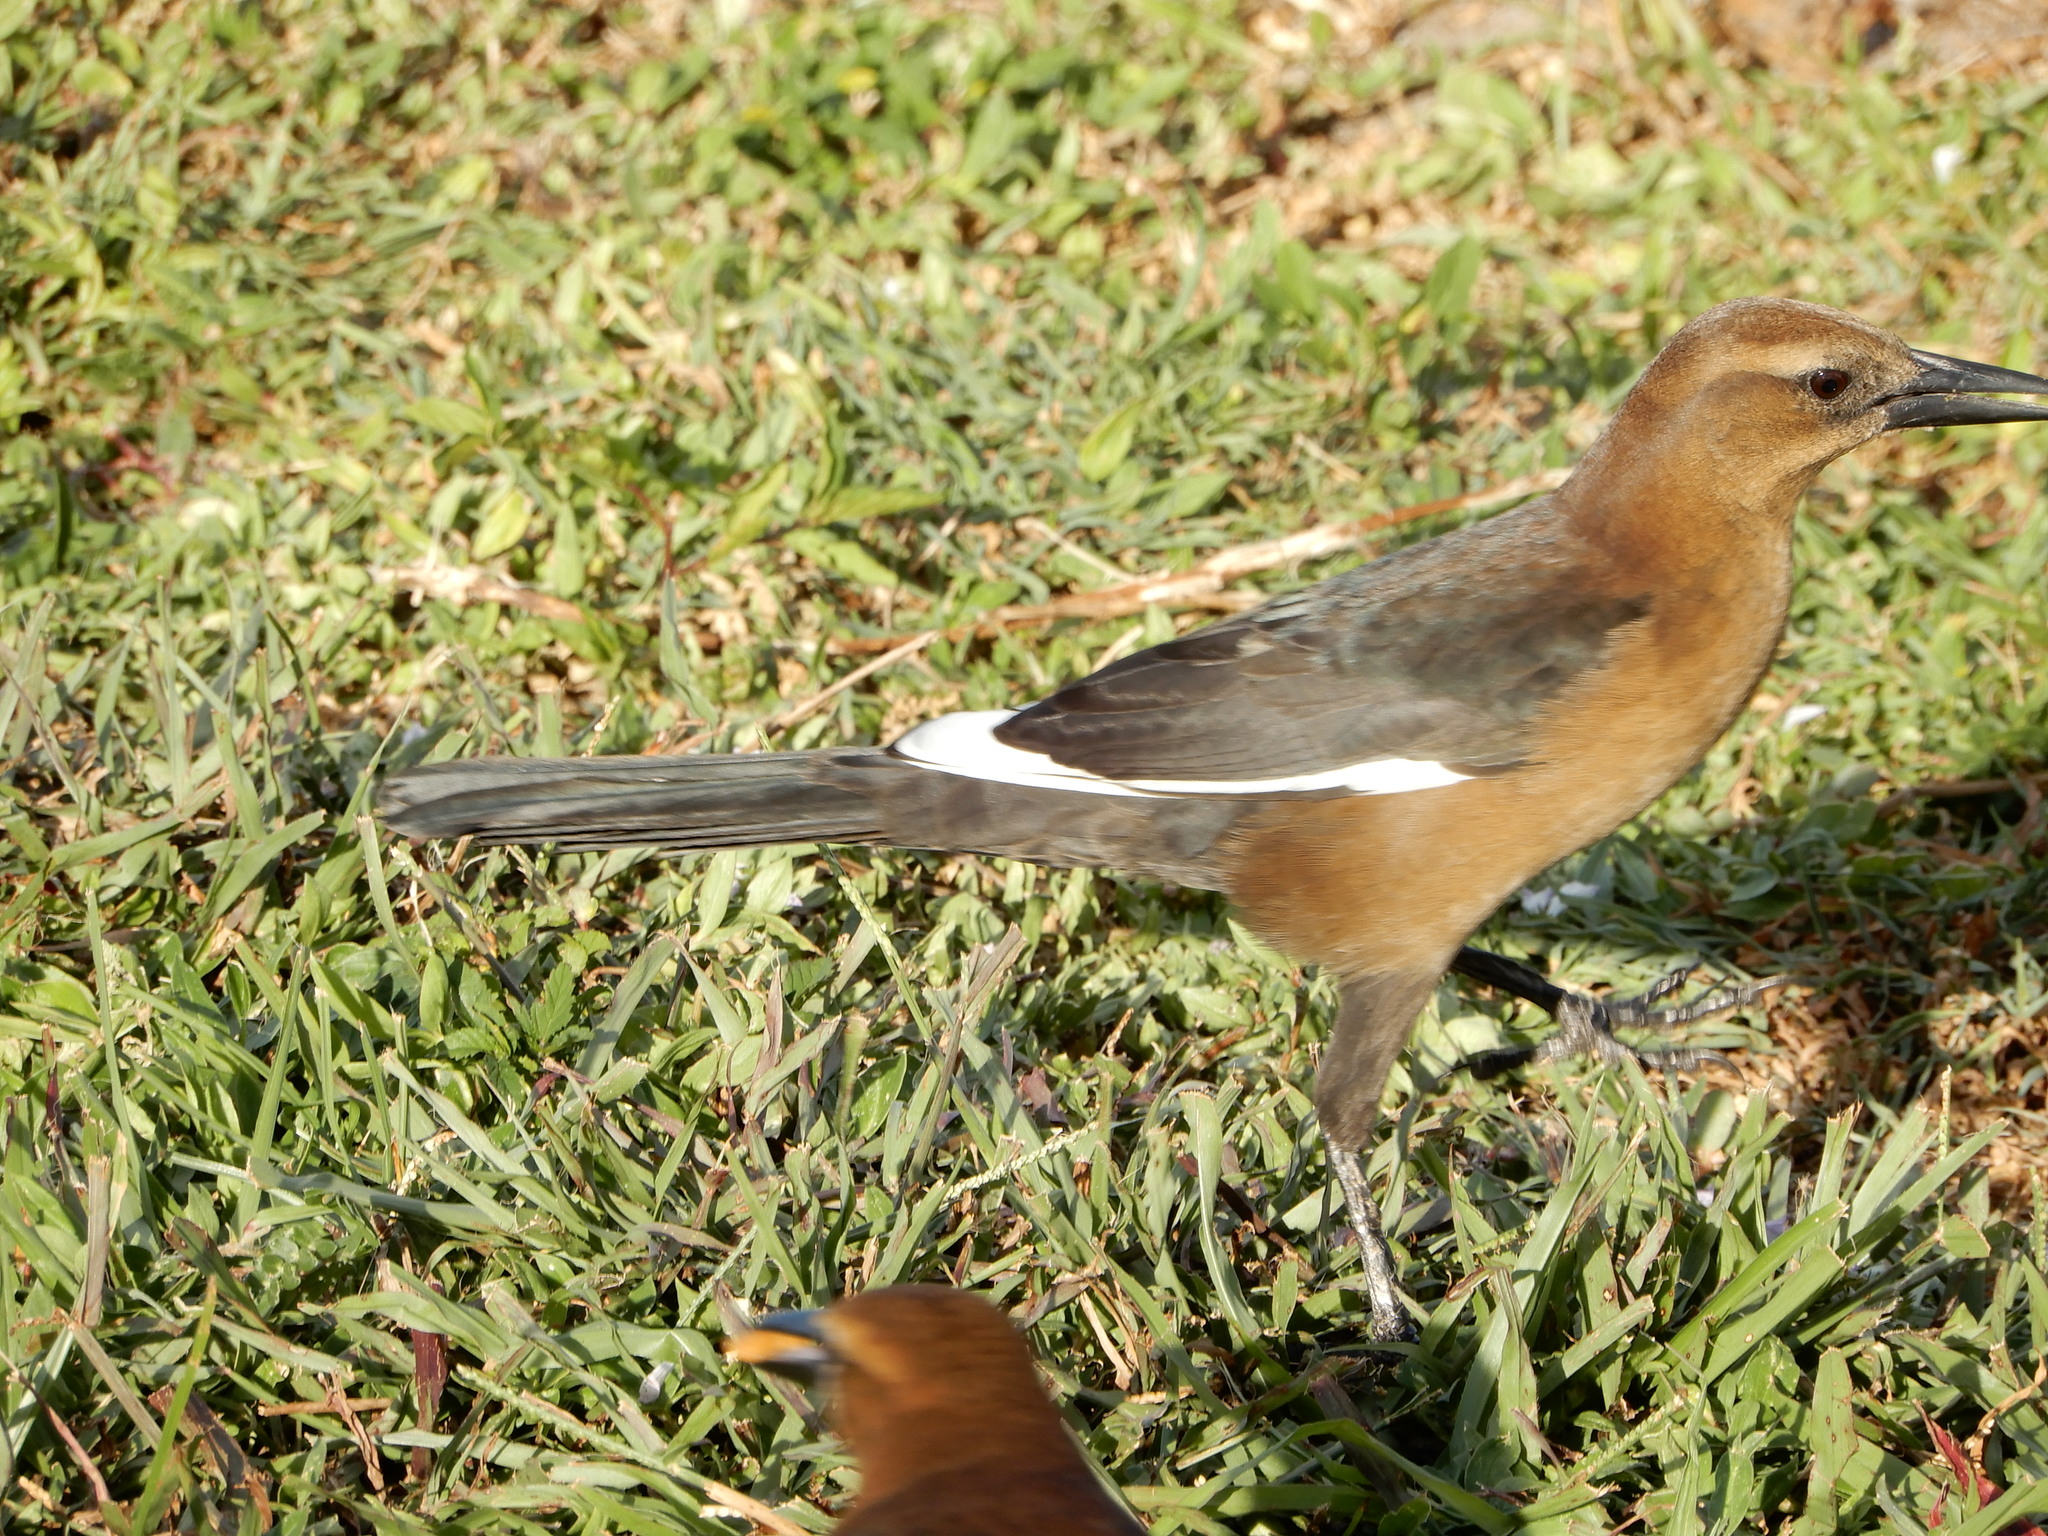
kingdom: Animalia
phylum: Chordata
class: Aves
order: Passeriformes
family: Icteridae
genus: Quiscalus
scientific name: Quiscalus major
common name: Boat-tailed grackle
